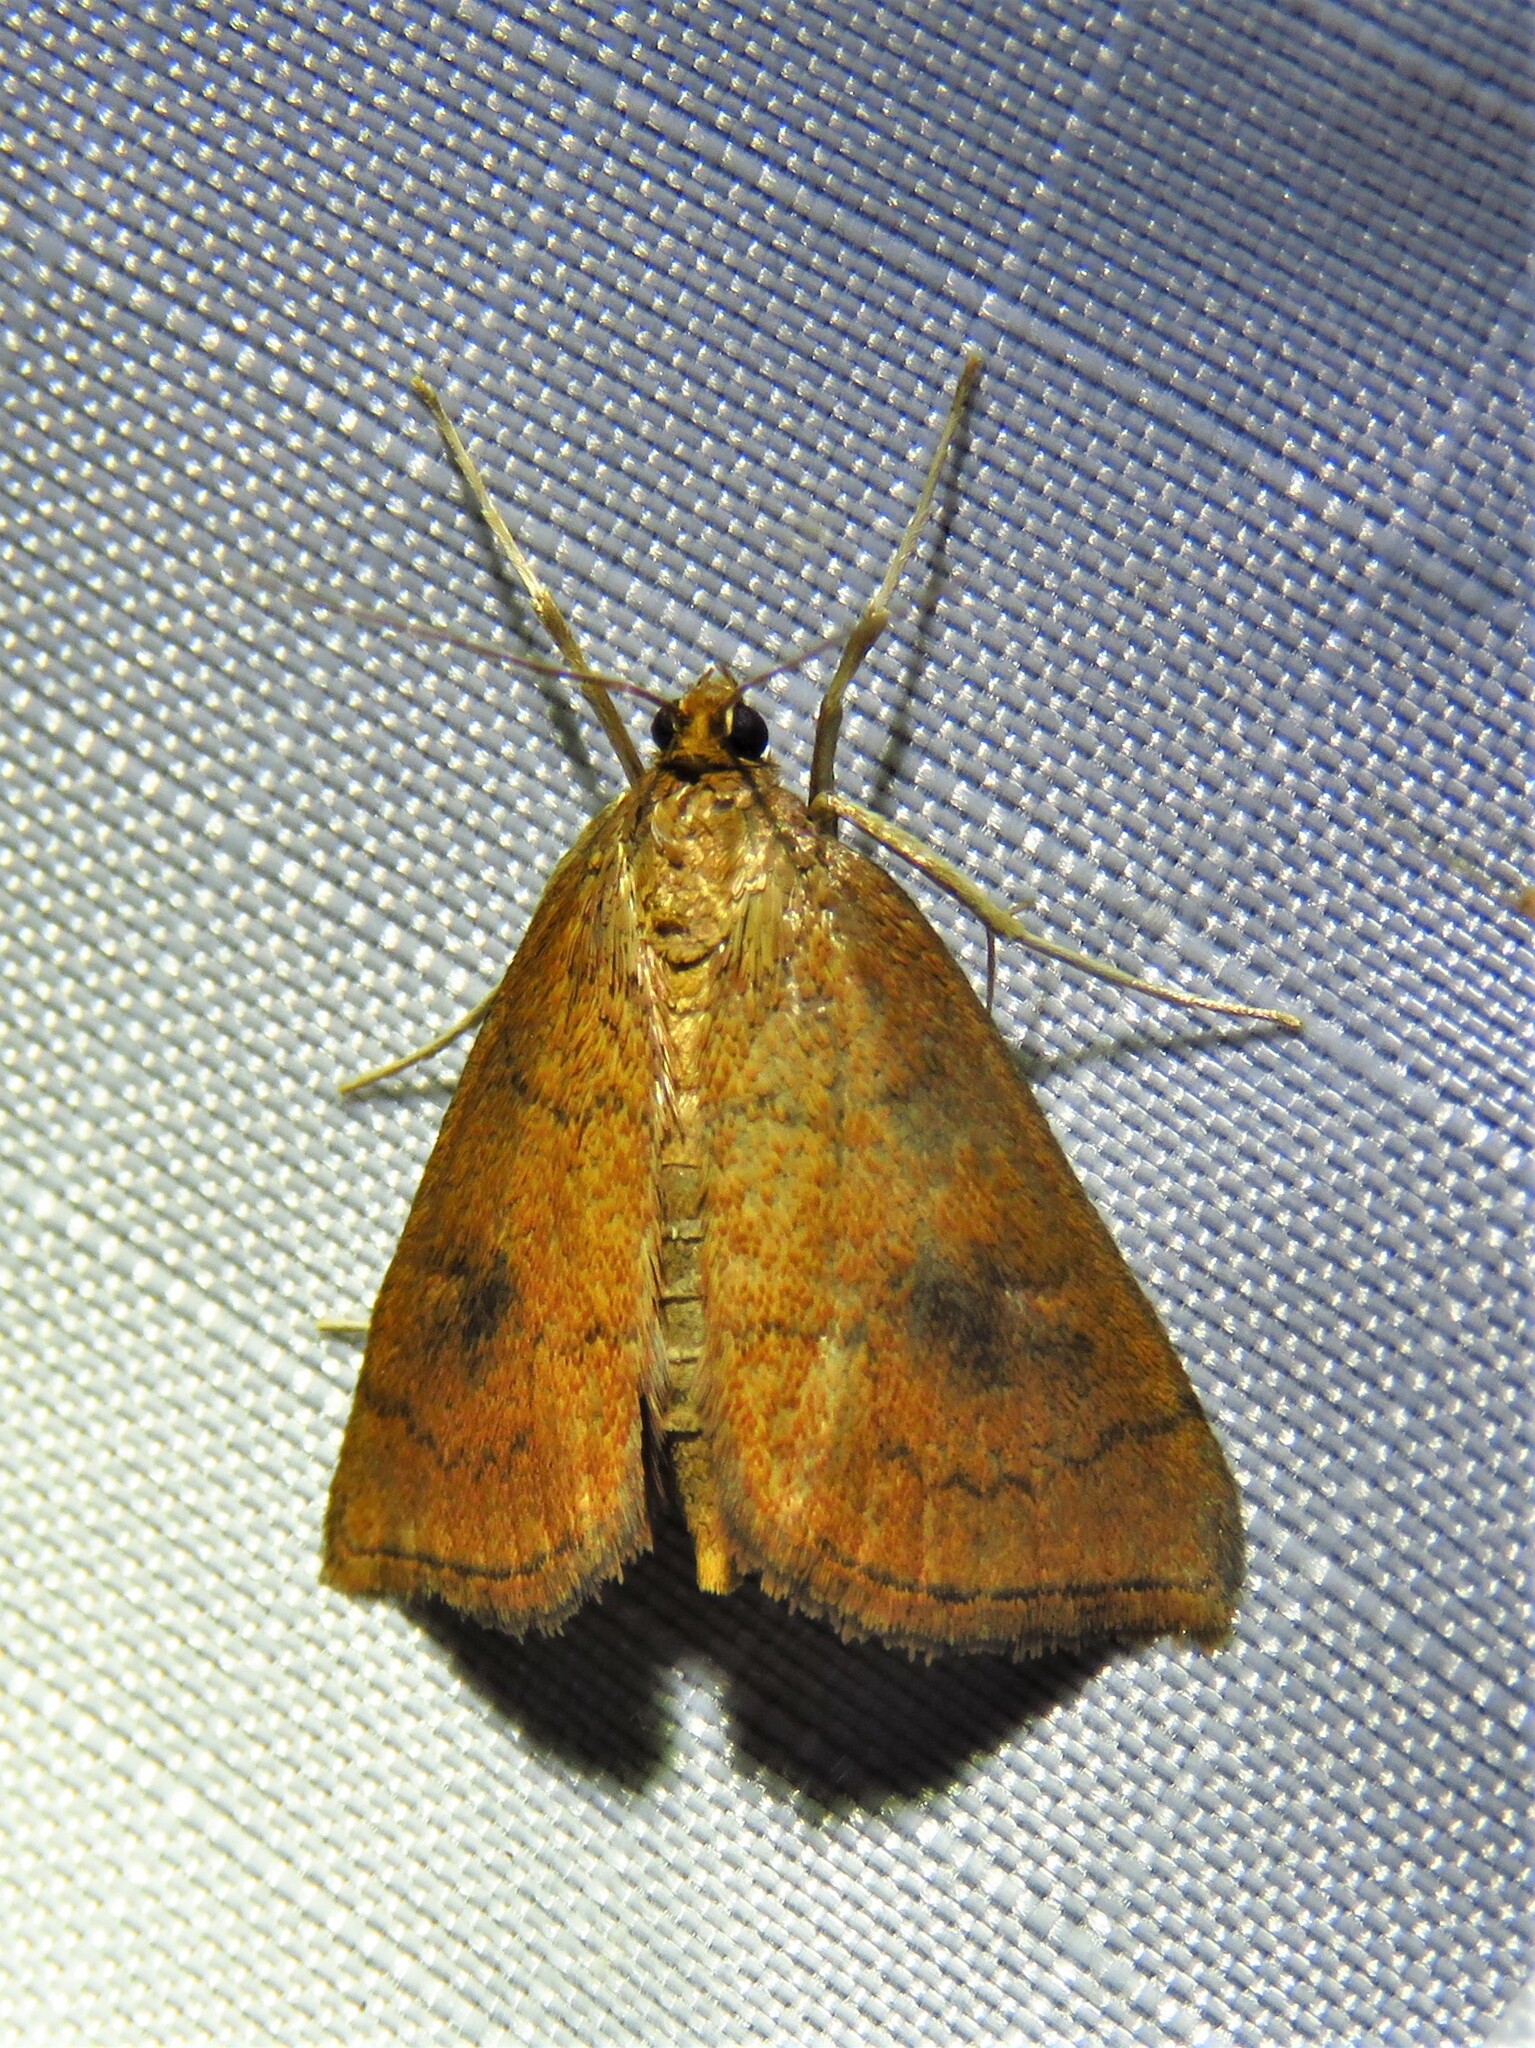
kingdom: Animalia
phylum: Arthropoda
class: Insecta
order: Lepidoptera
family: Crambidae
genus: Fumibotys
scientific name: Fumibotys fumalis
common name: Mint root borer moth
